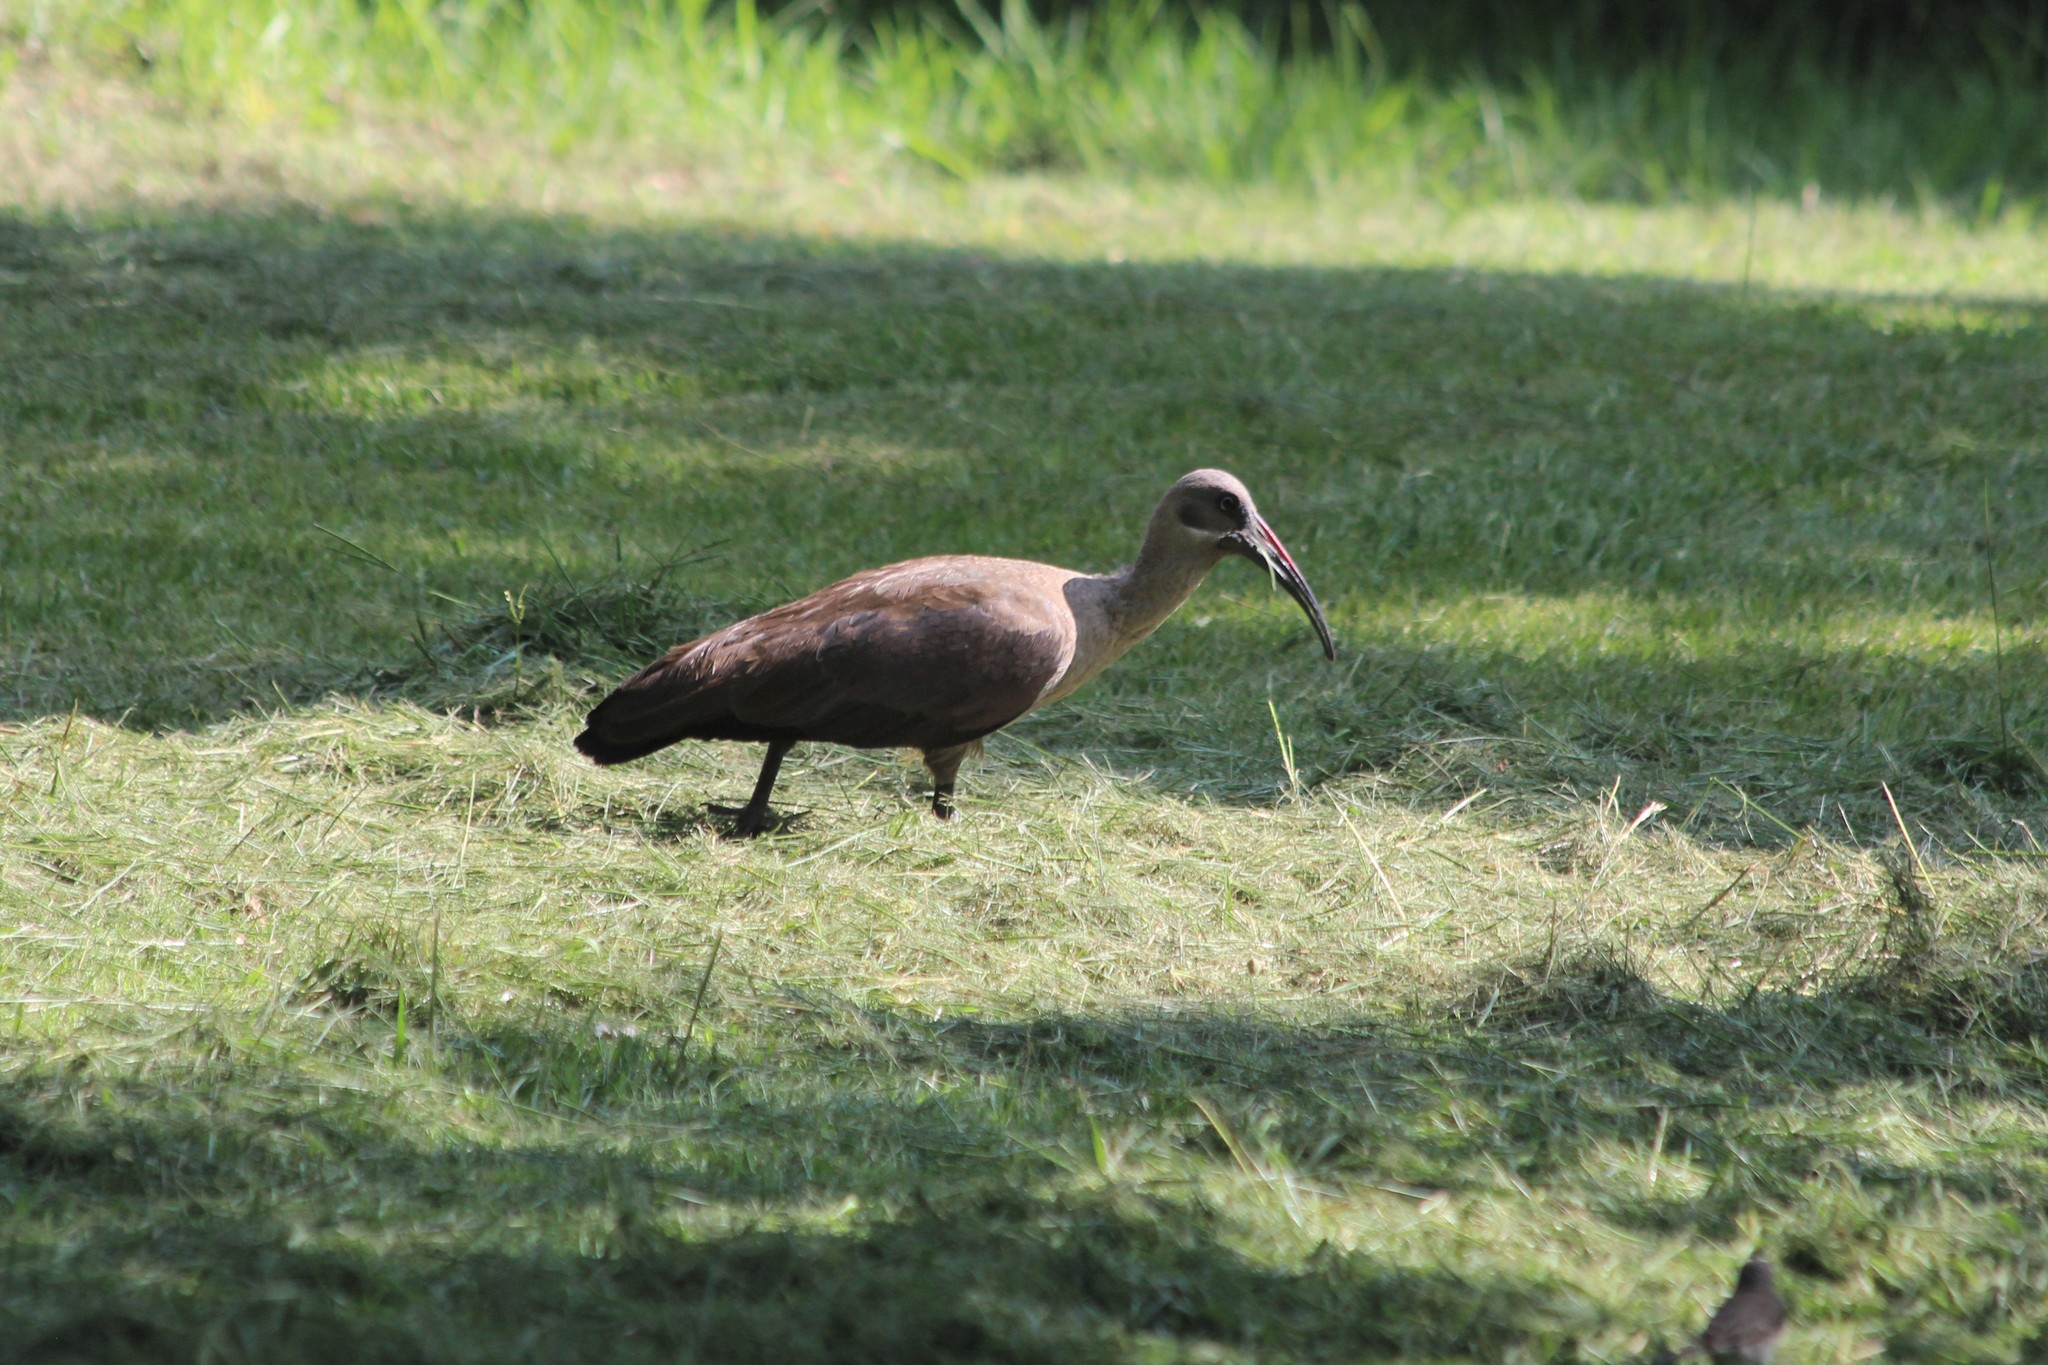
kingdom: Animalia
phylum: Chordata
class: Aves
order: Pelecaniformes
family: Threskiornithidae
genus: Bostrychia
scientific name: Bostrychia hagedash
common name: Hadada ibis
